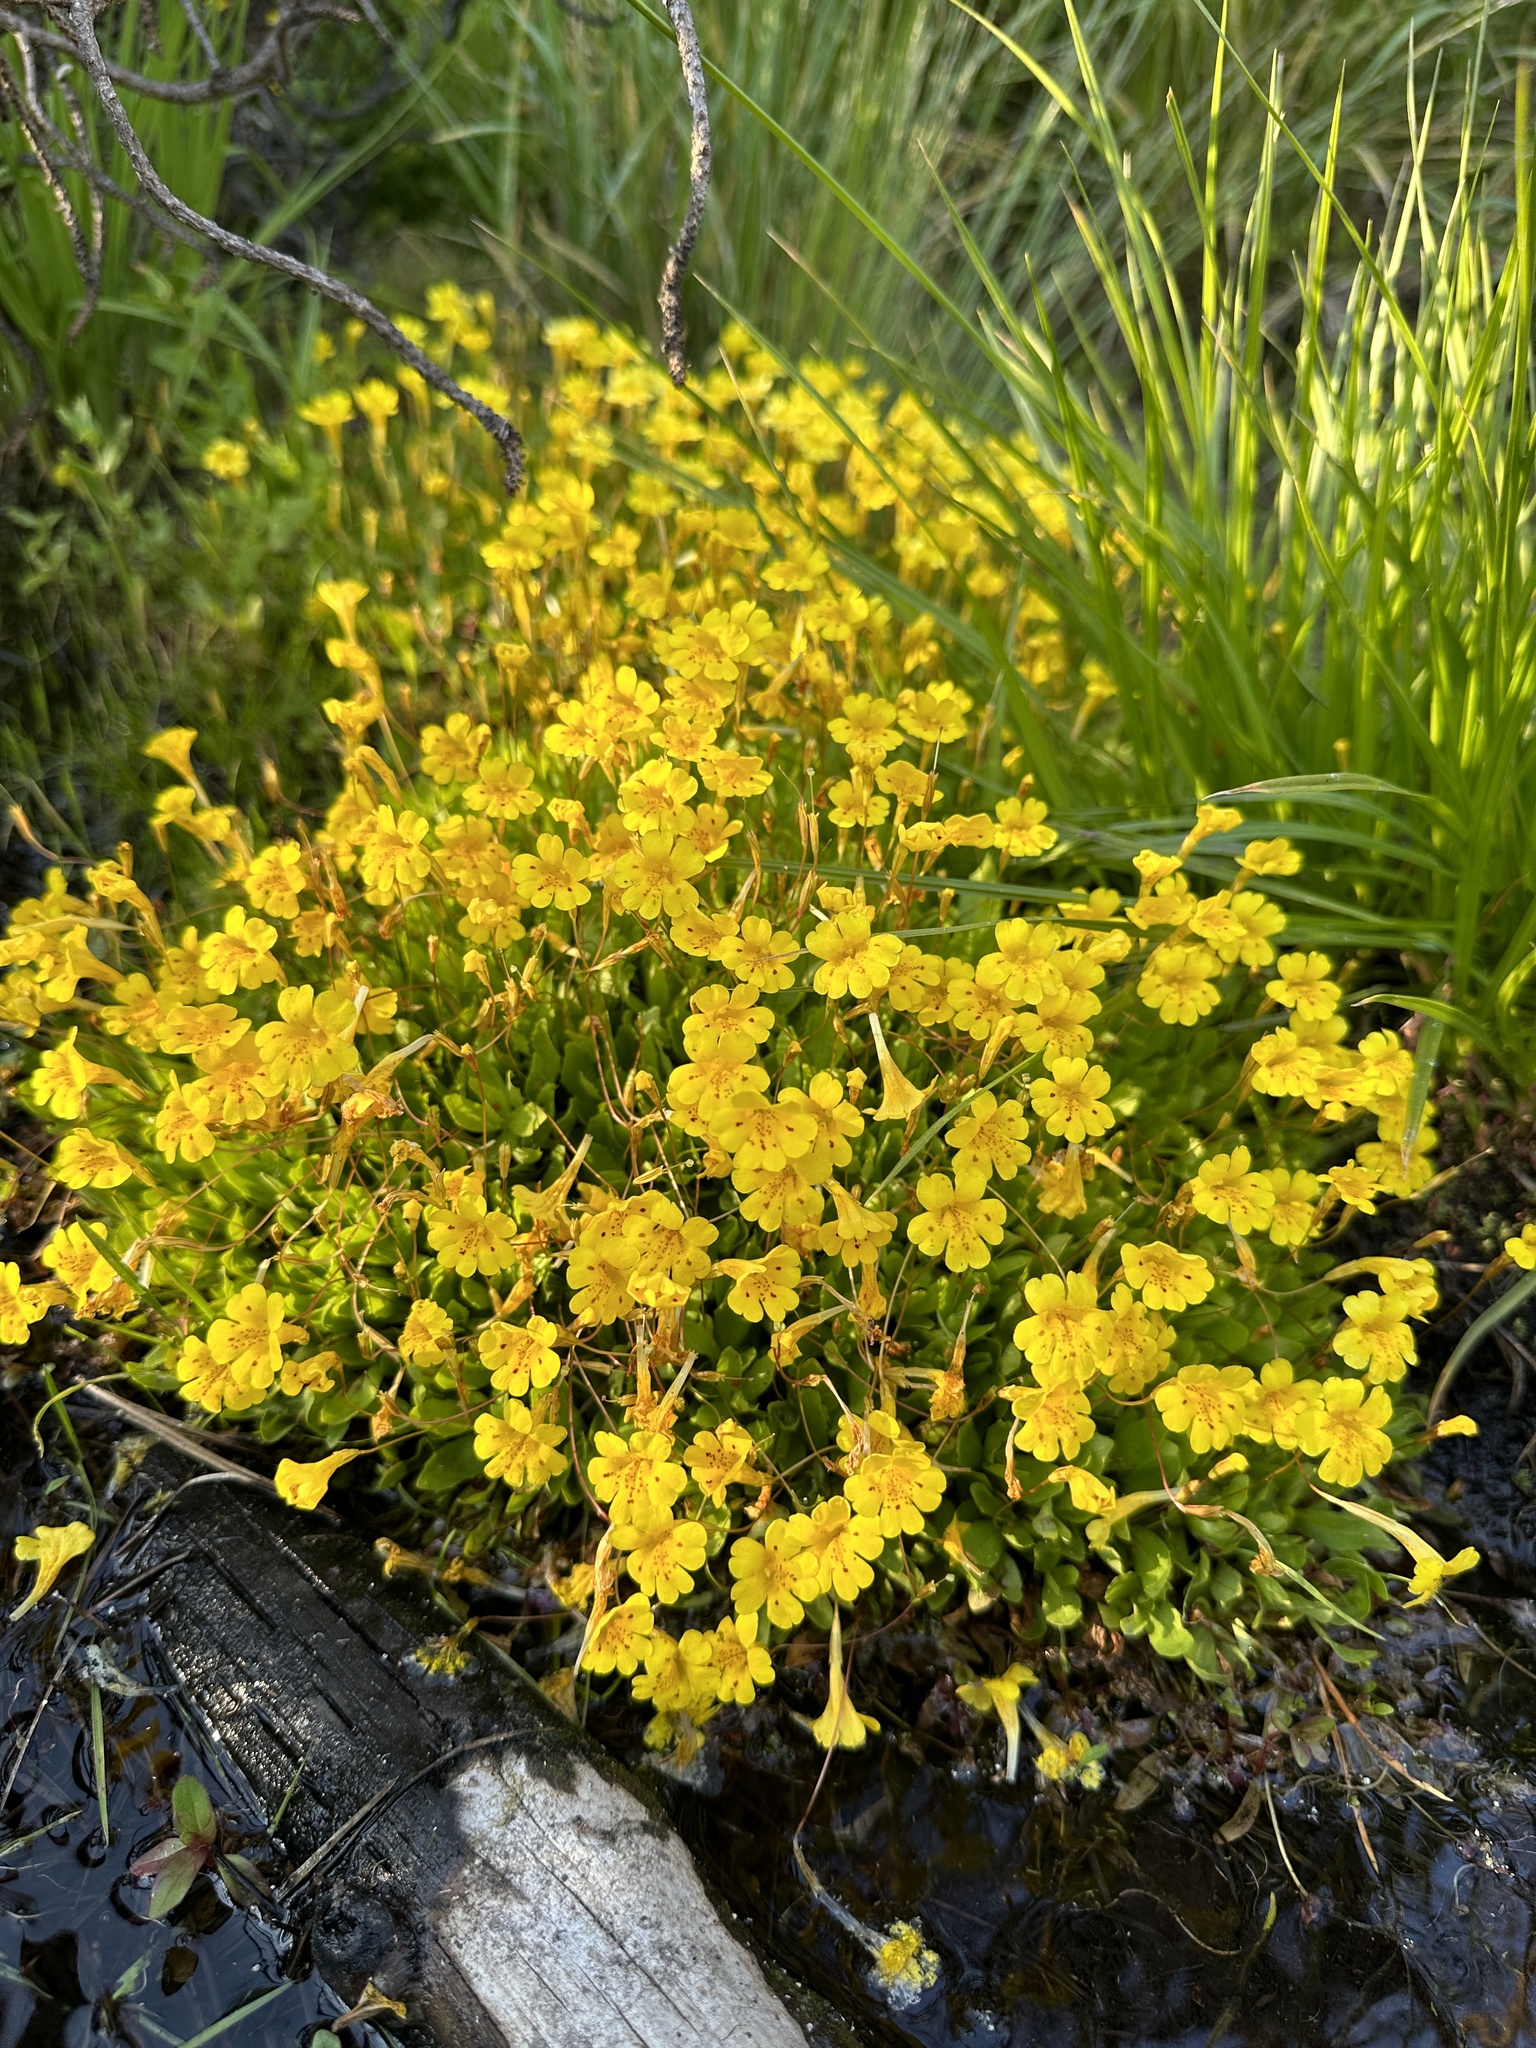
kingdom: Plantae
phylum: Tracheophyta
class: Magnoliopsida
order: Lamiales
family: Phrymaceae
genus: Erythranthe
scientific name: Erythranthe primuloides
